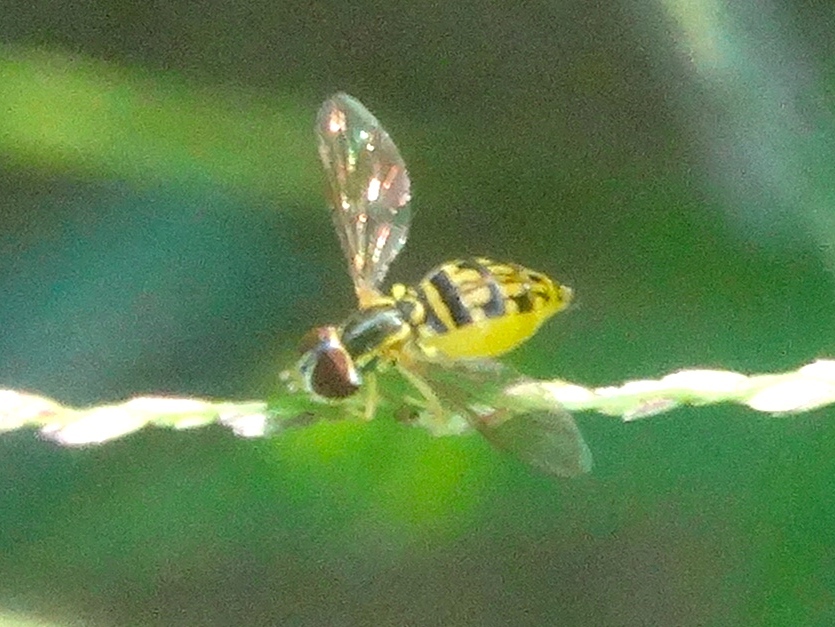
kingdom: Animalia
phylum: Arthropoda
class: Insecta
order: Diptera
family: Syrphidae
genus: Toxomerus
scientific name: Toxomerus pictus
